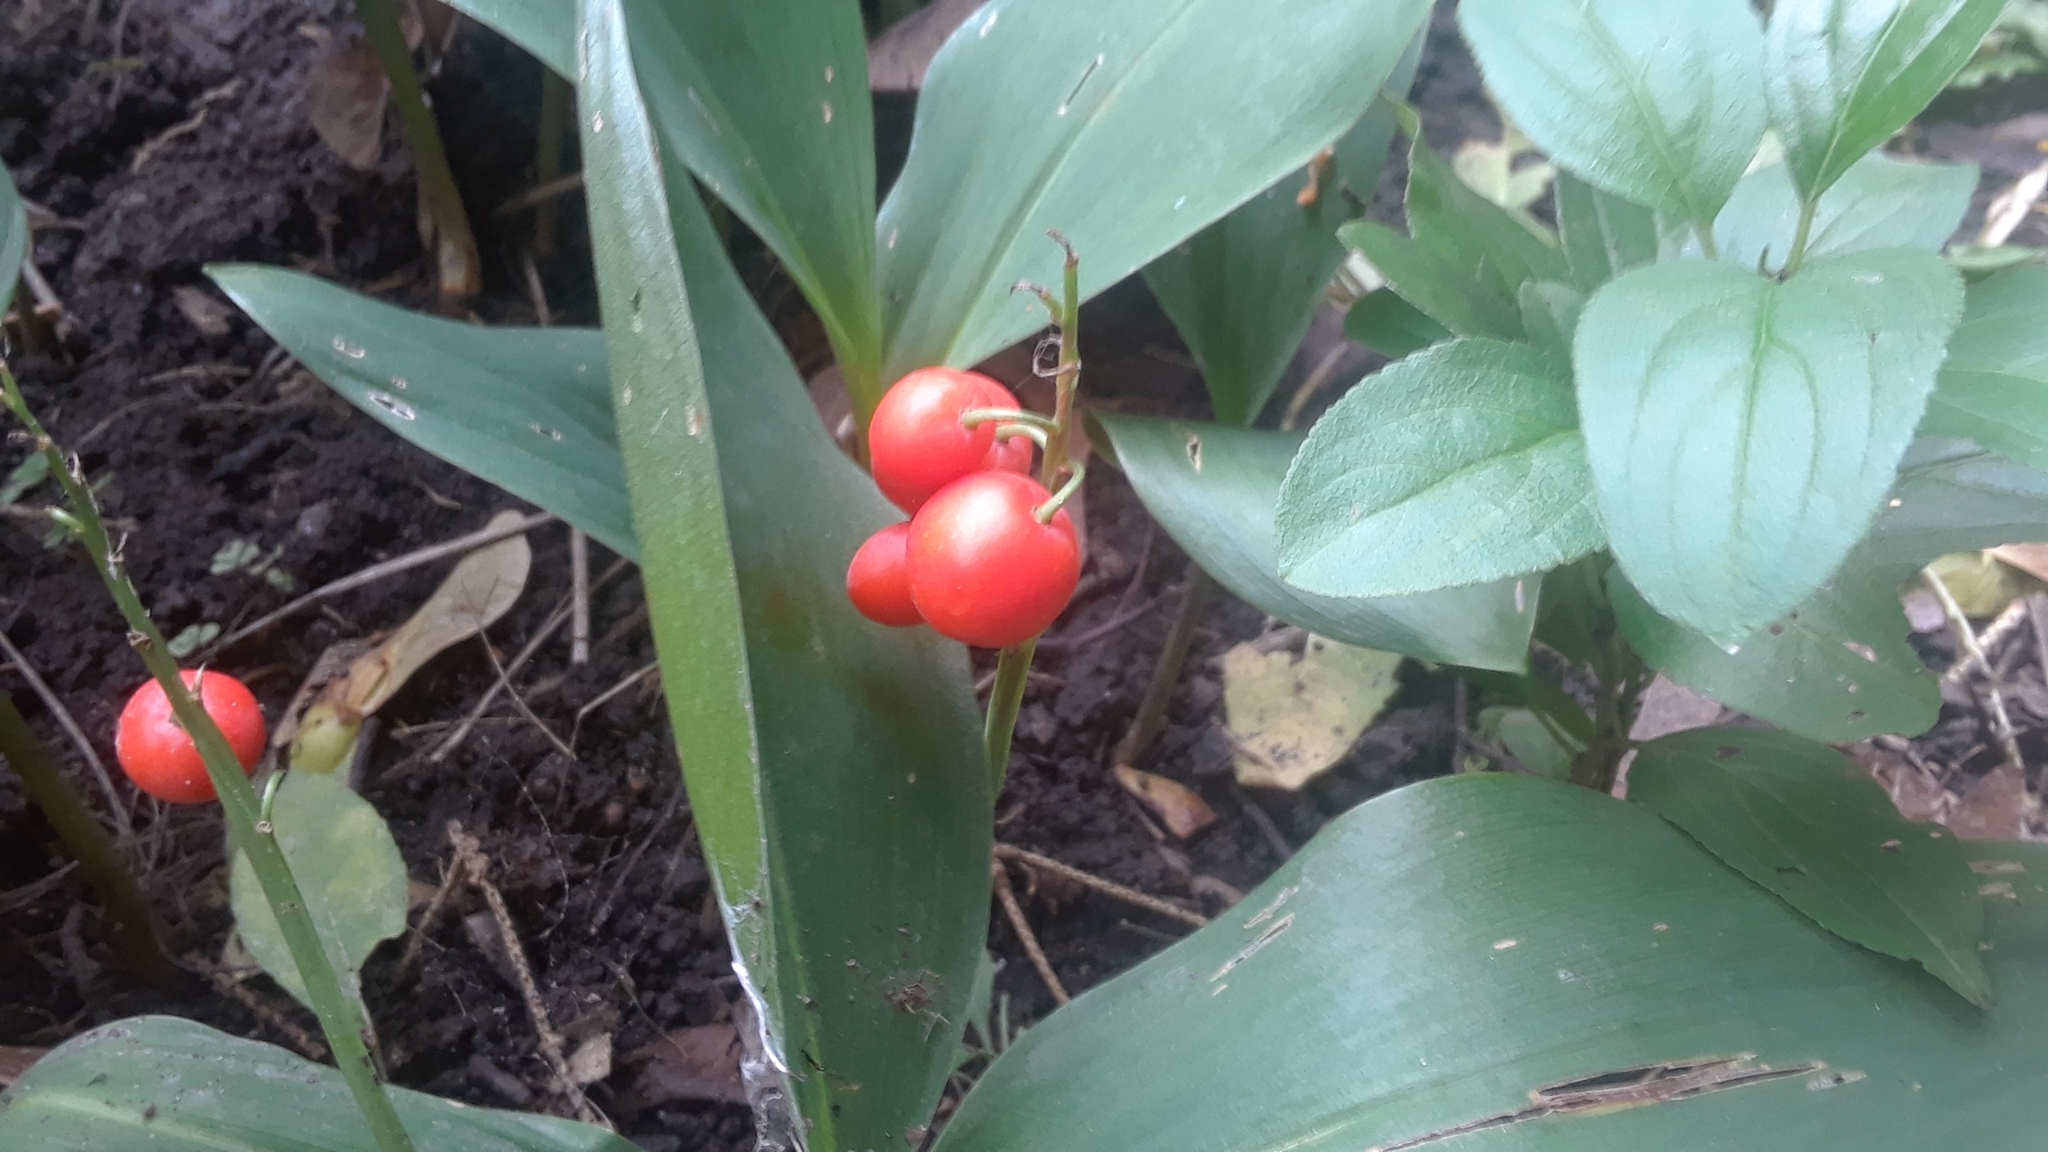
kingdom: Plantae
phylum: Tracheophyta
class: Liliopsida
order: Asparagales
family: Asparagaceae
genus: Convallaria
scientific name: Convallaria majalis
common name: Lily-of-the-valley
